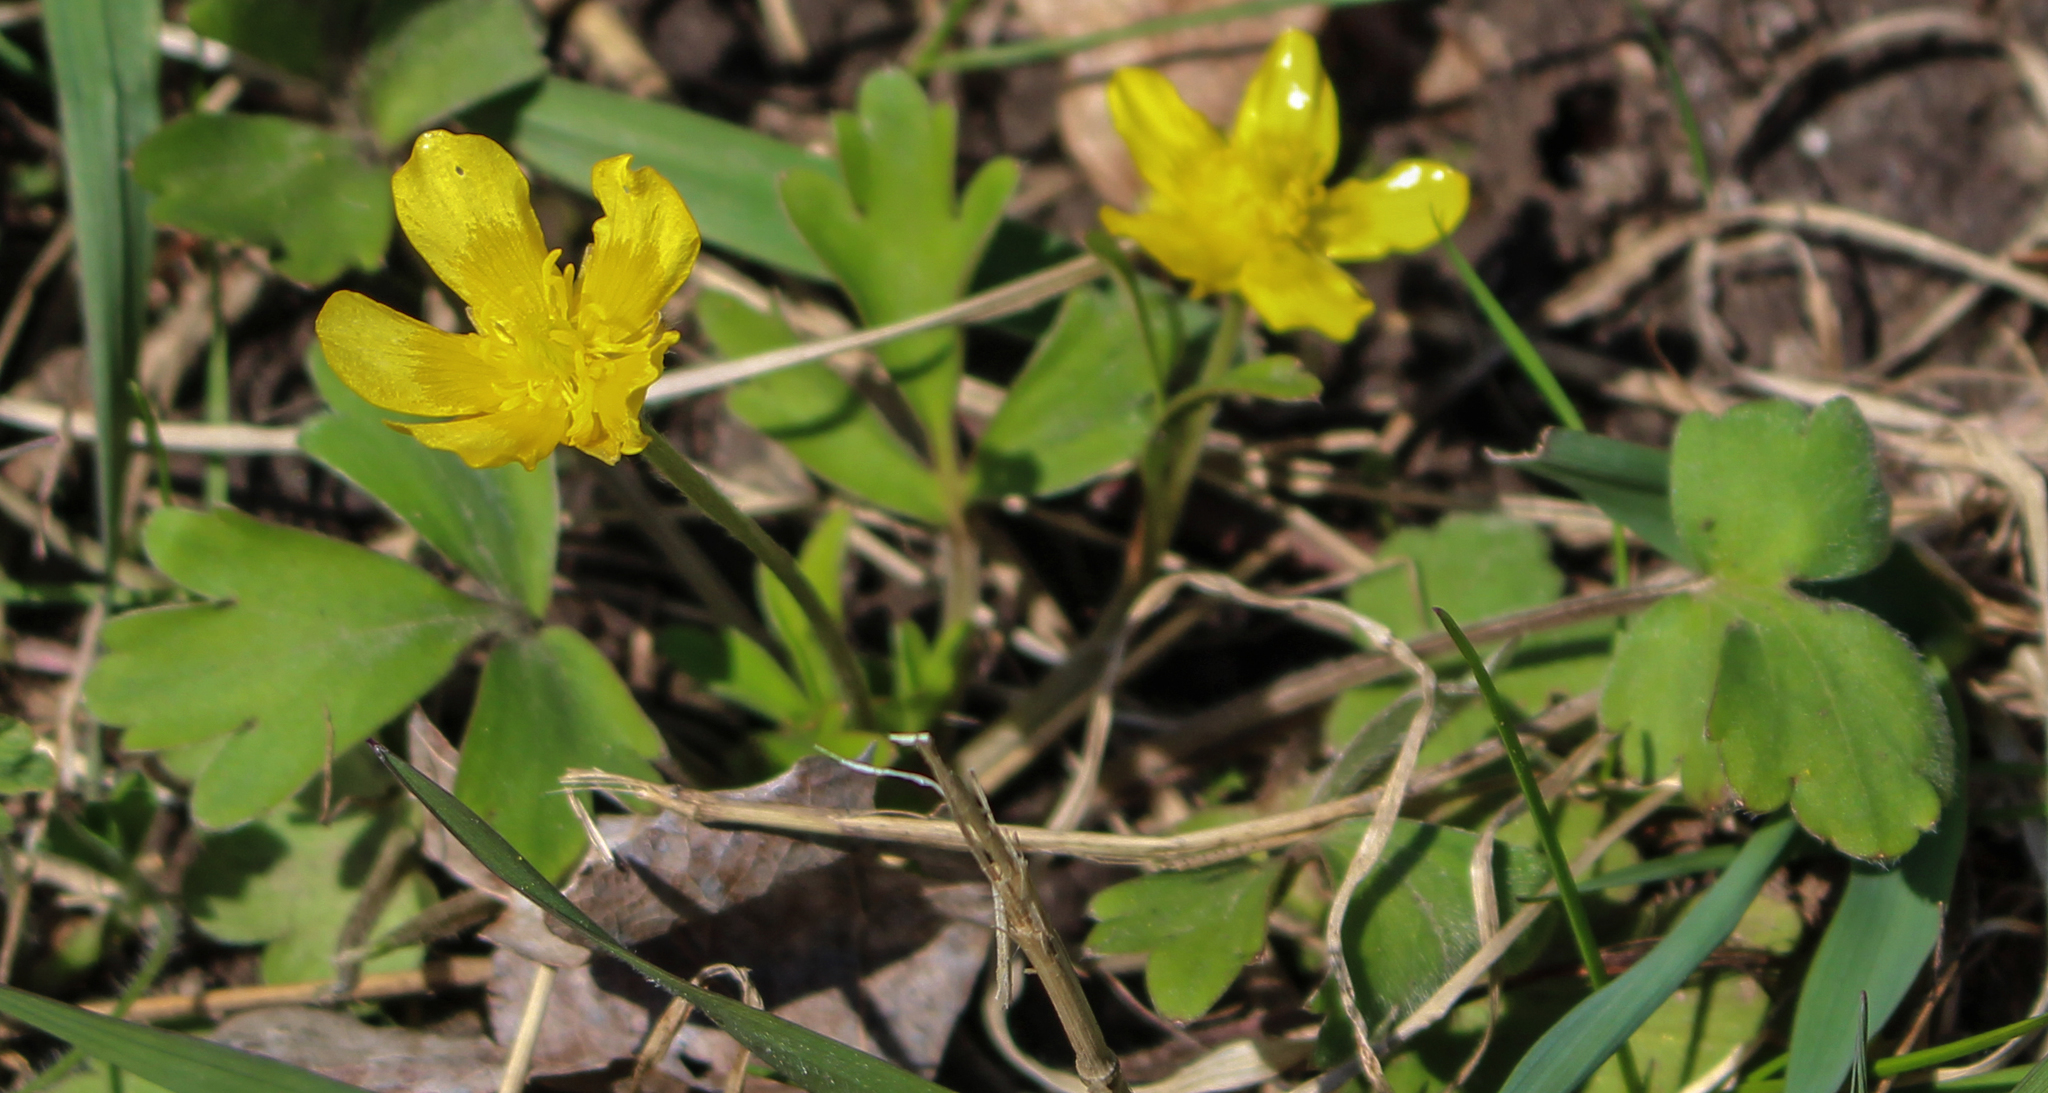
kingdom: Plantae
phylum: Tracheophyta
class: Magnoliopsida
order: Ranunculales
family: Ranunculaceae
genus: Ranunculus
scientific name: Ranunculus fascicularis
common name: Early buttercup
